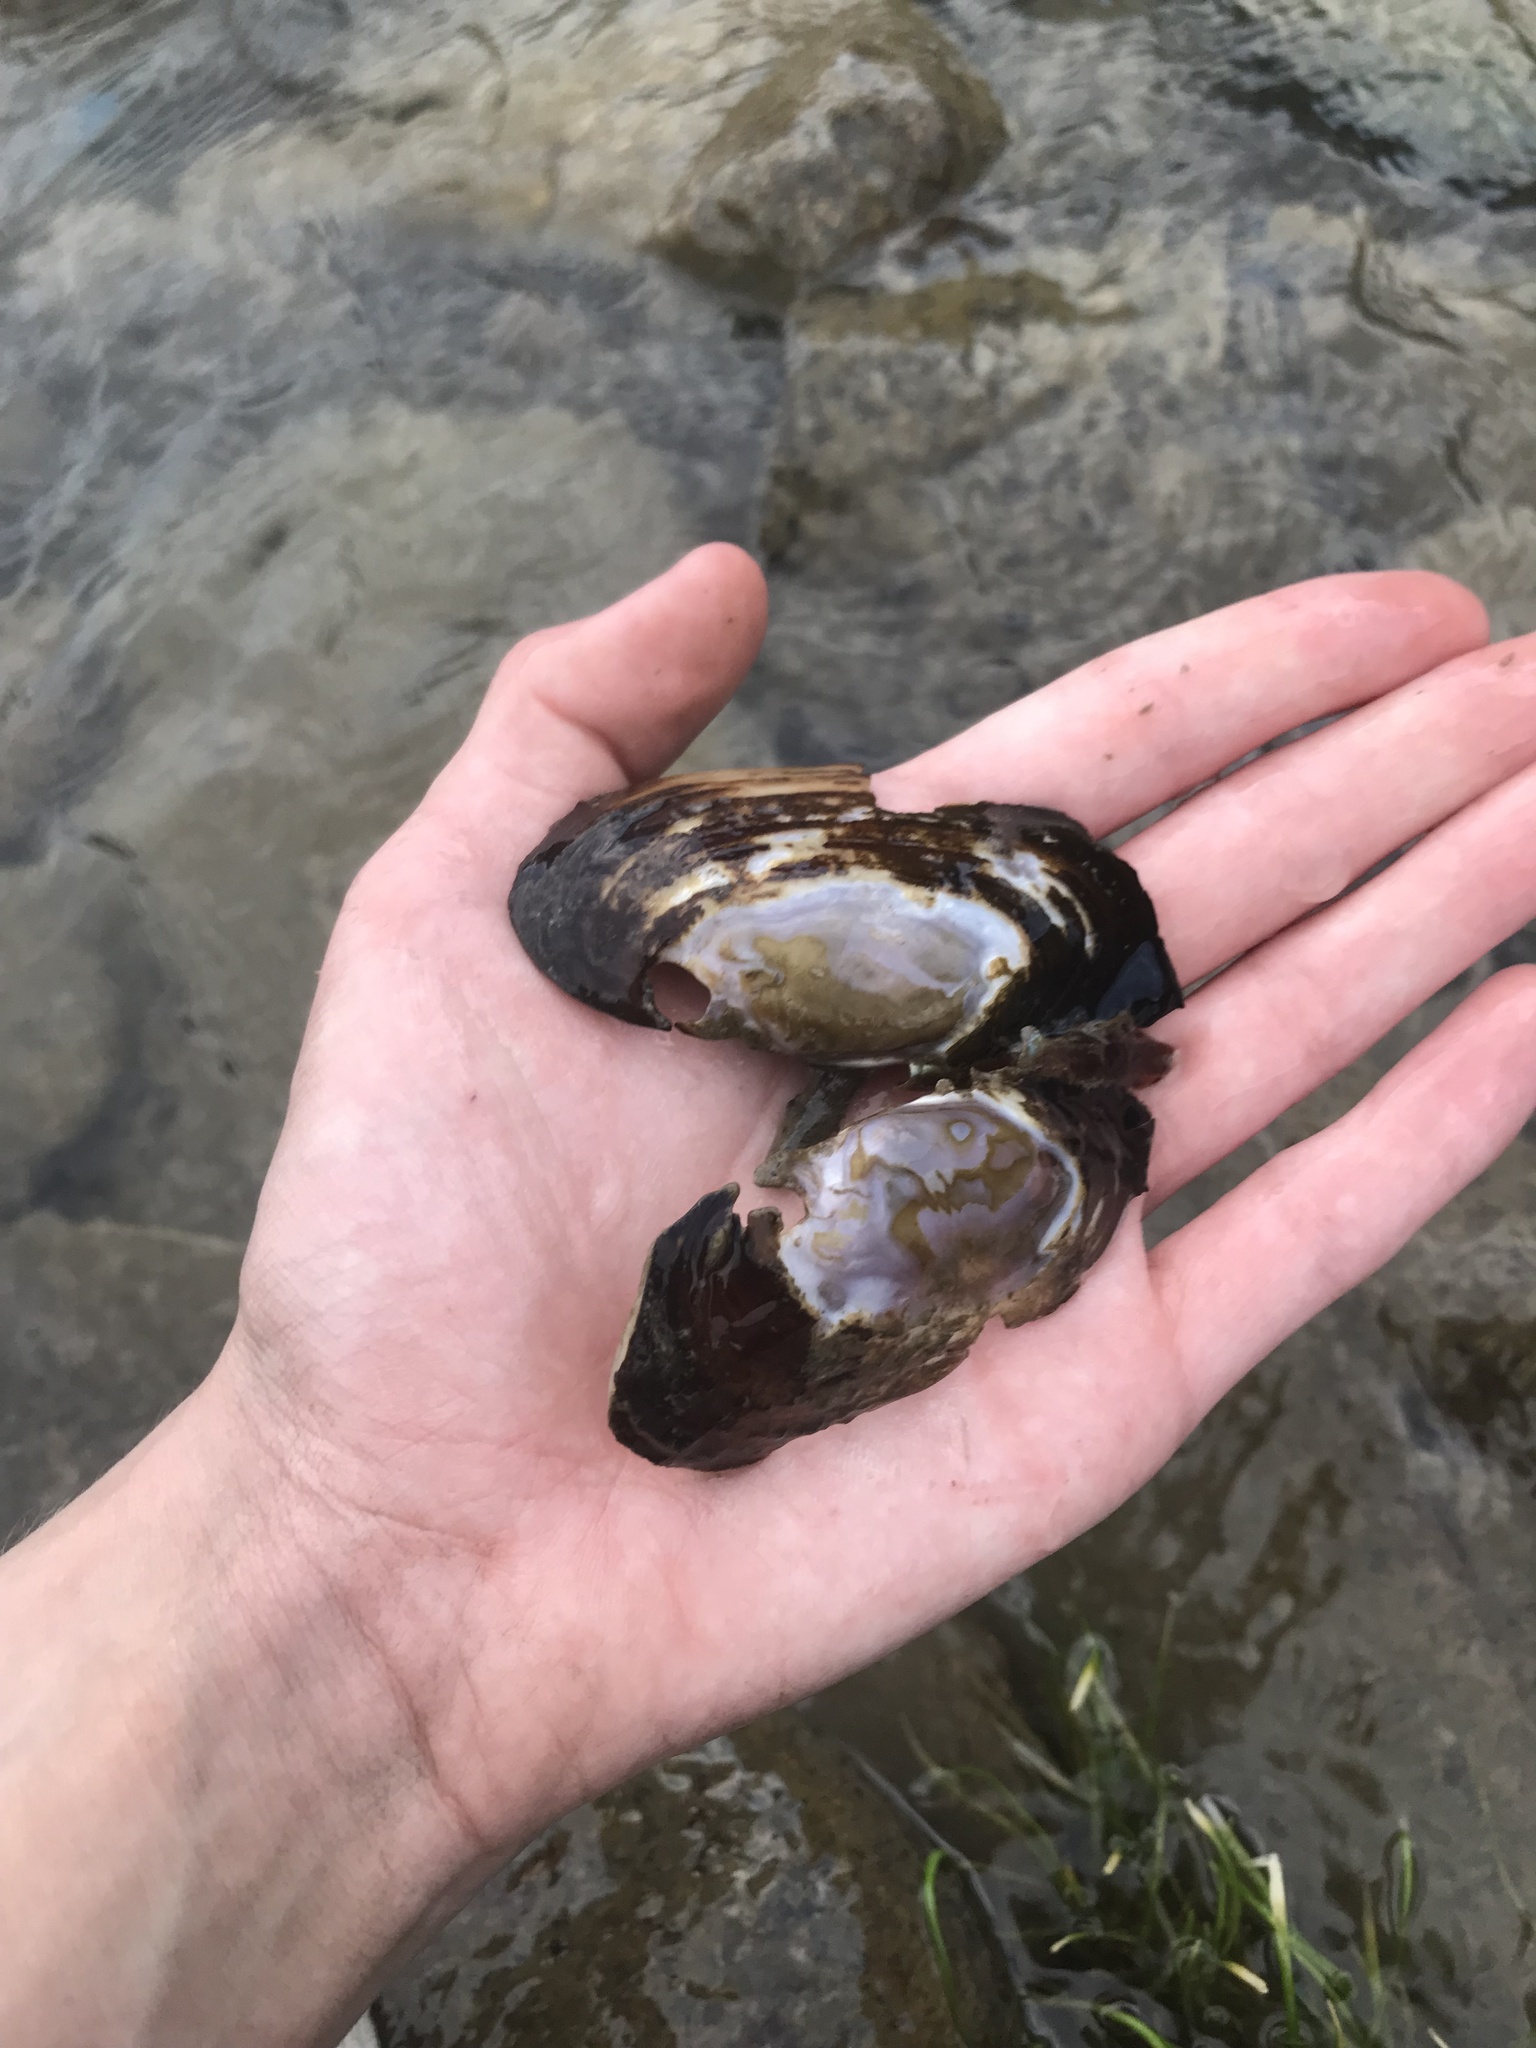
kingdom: Animalia
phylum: Mollusca
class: Bivalvia
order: Unionida
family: Margaritiferidae
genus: Margaritifera
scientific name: Margaritifera falcata
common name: Western pearlshell
